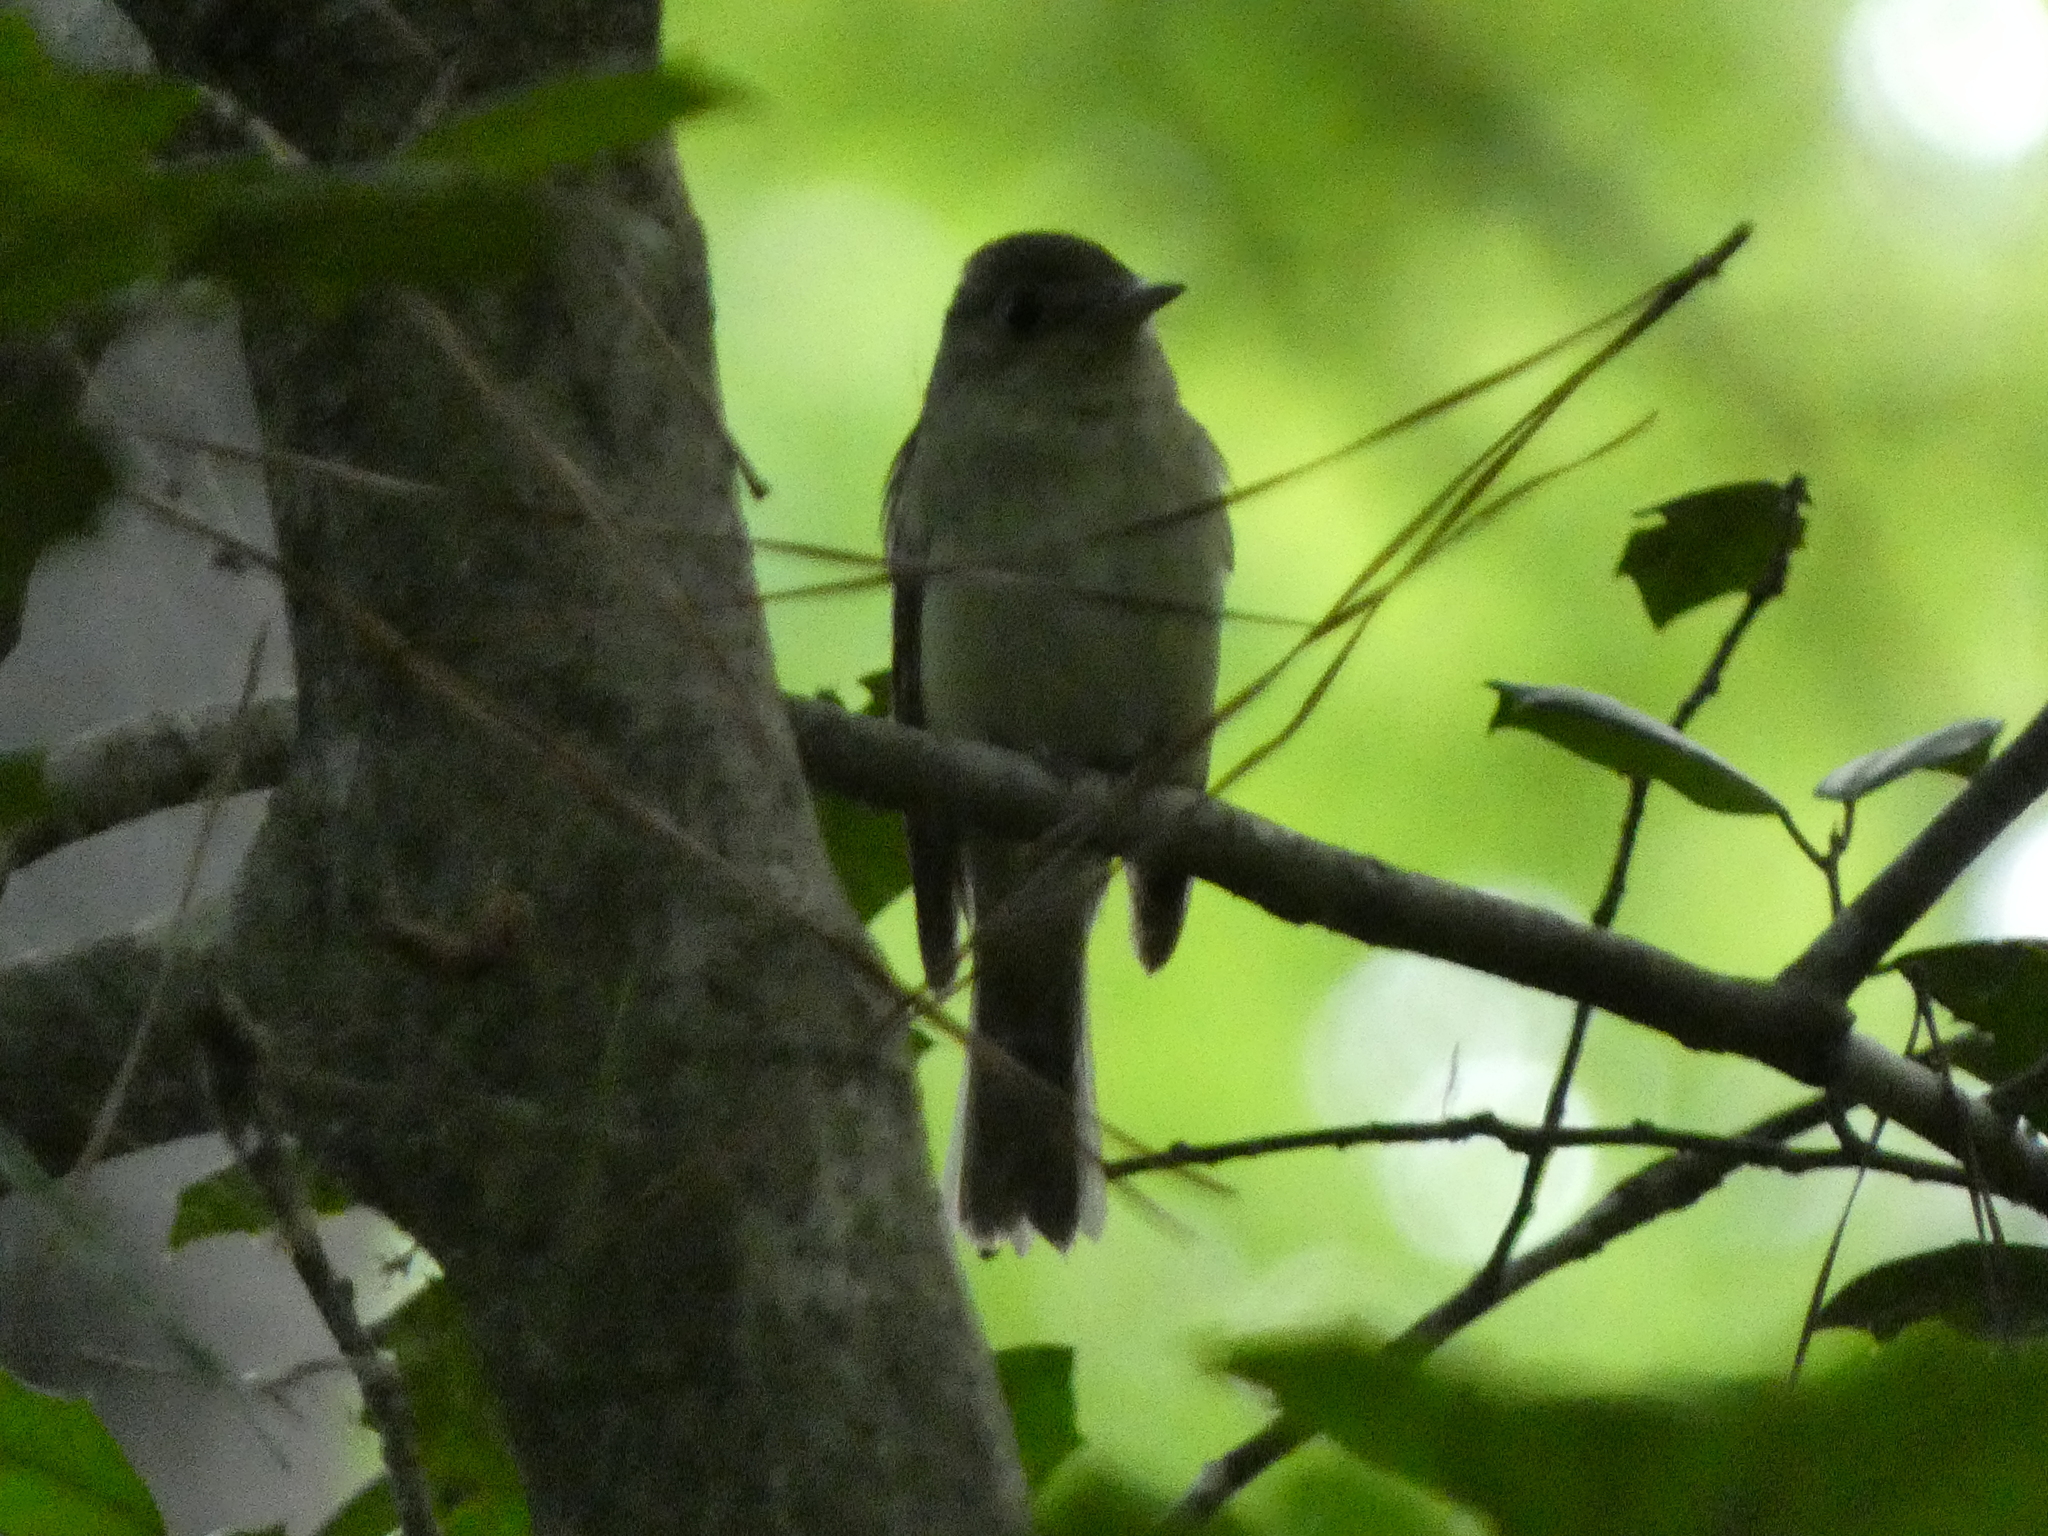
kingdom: Animalia
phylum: Chordata
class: Aves
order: Passeriformes
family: Tyrannidae
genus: Empidonax
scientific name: Empidonax virescens
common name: Acadian flycatcher
